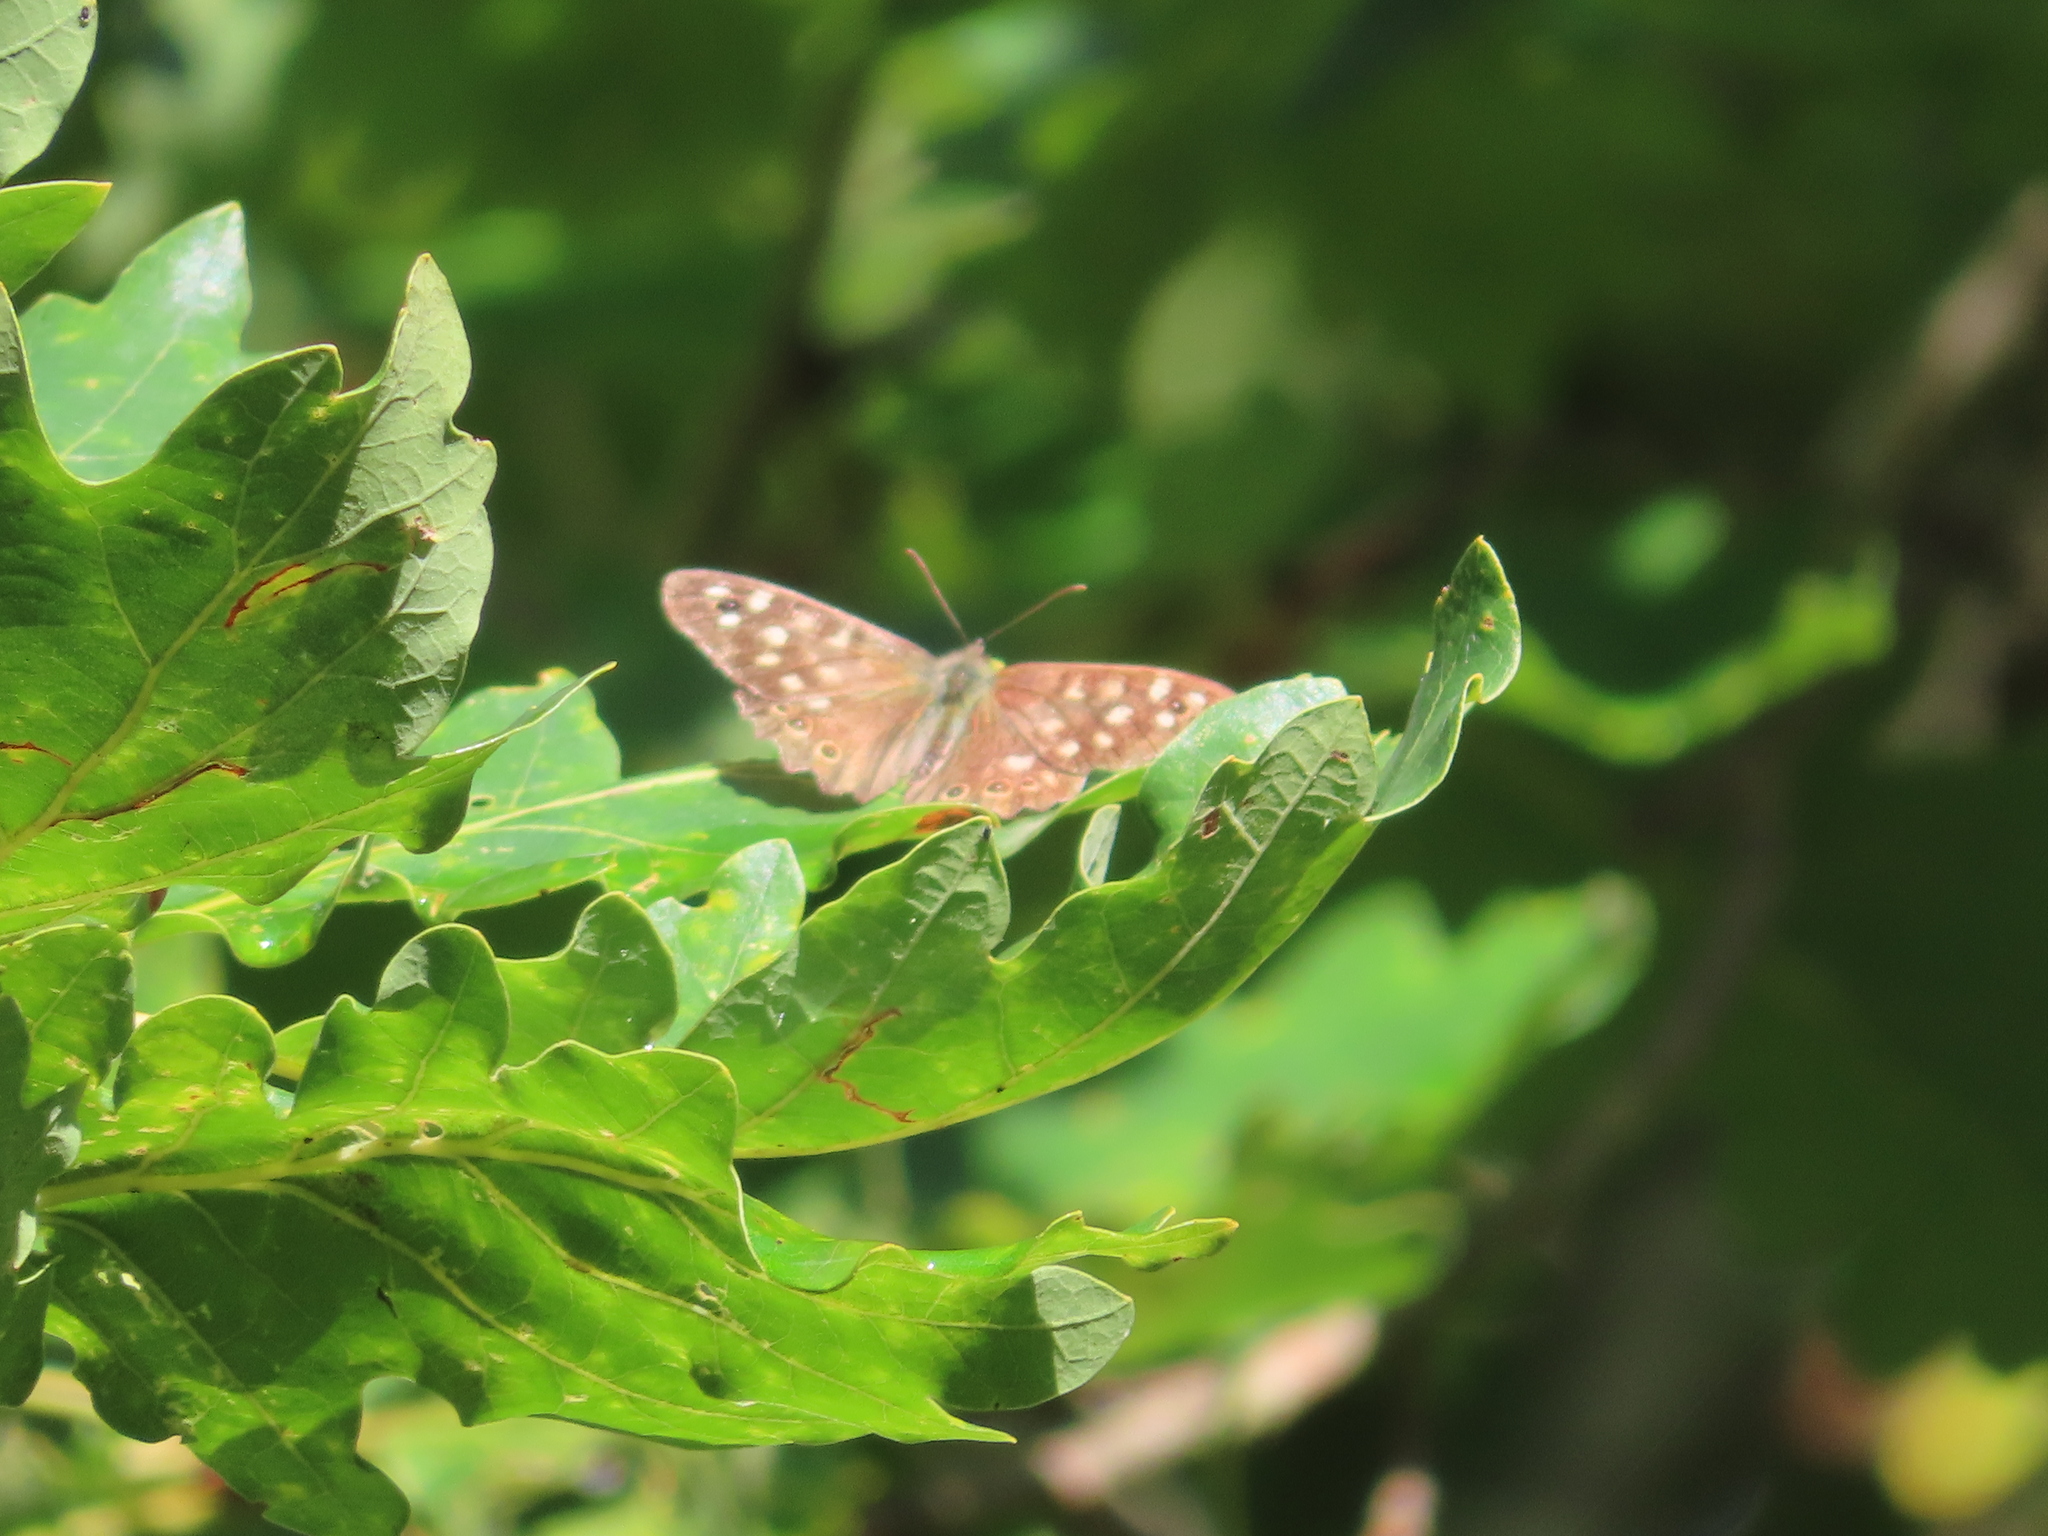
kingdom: Animalia
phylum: Arthropoda
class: Insecta
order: Lepidoptera
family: Nymphalidae
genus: Pararge
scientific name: Pararge aegeria
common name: Speckled wood
